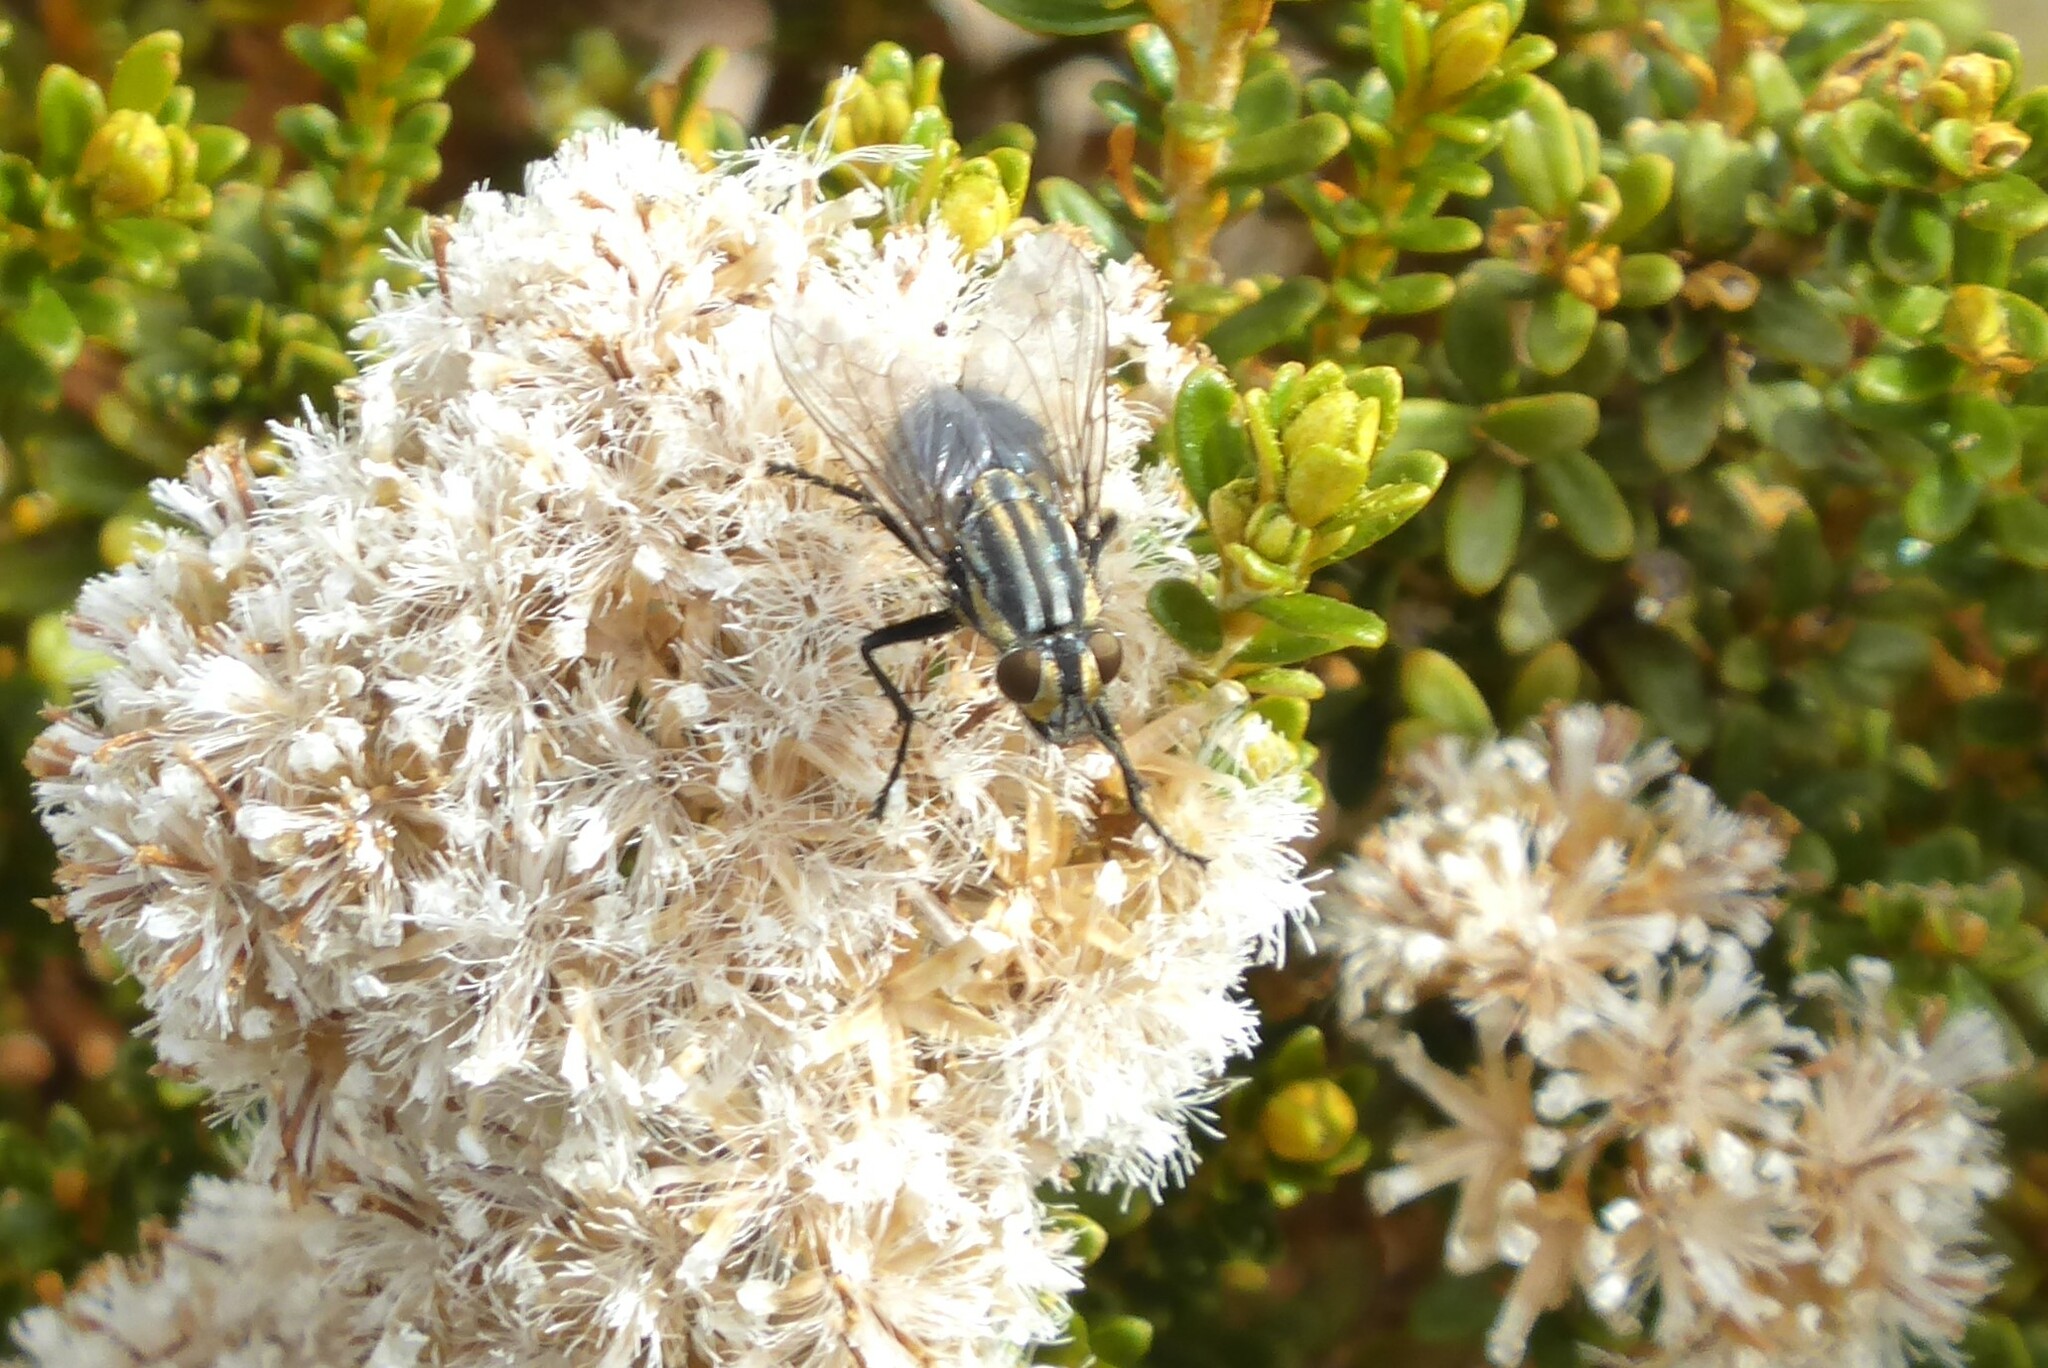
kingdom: Animalia
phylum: Arthropoda
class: Insecta
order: Diptera
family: Sarcophagidae
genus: Oxysarcodexia
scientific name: Oxysarcodexia varia
